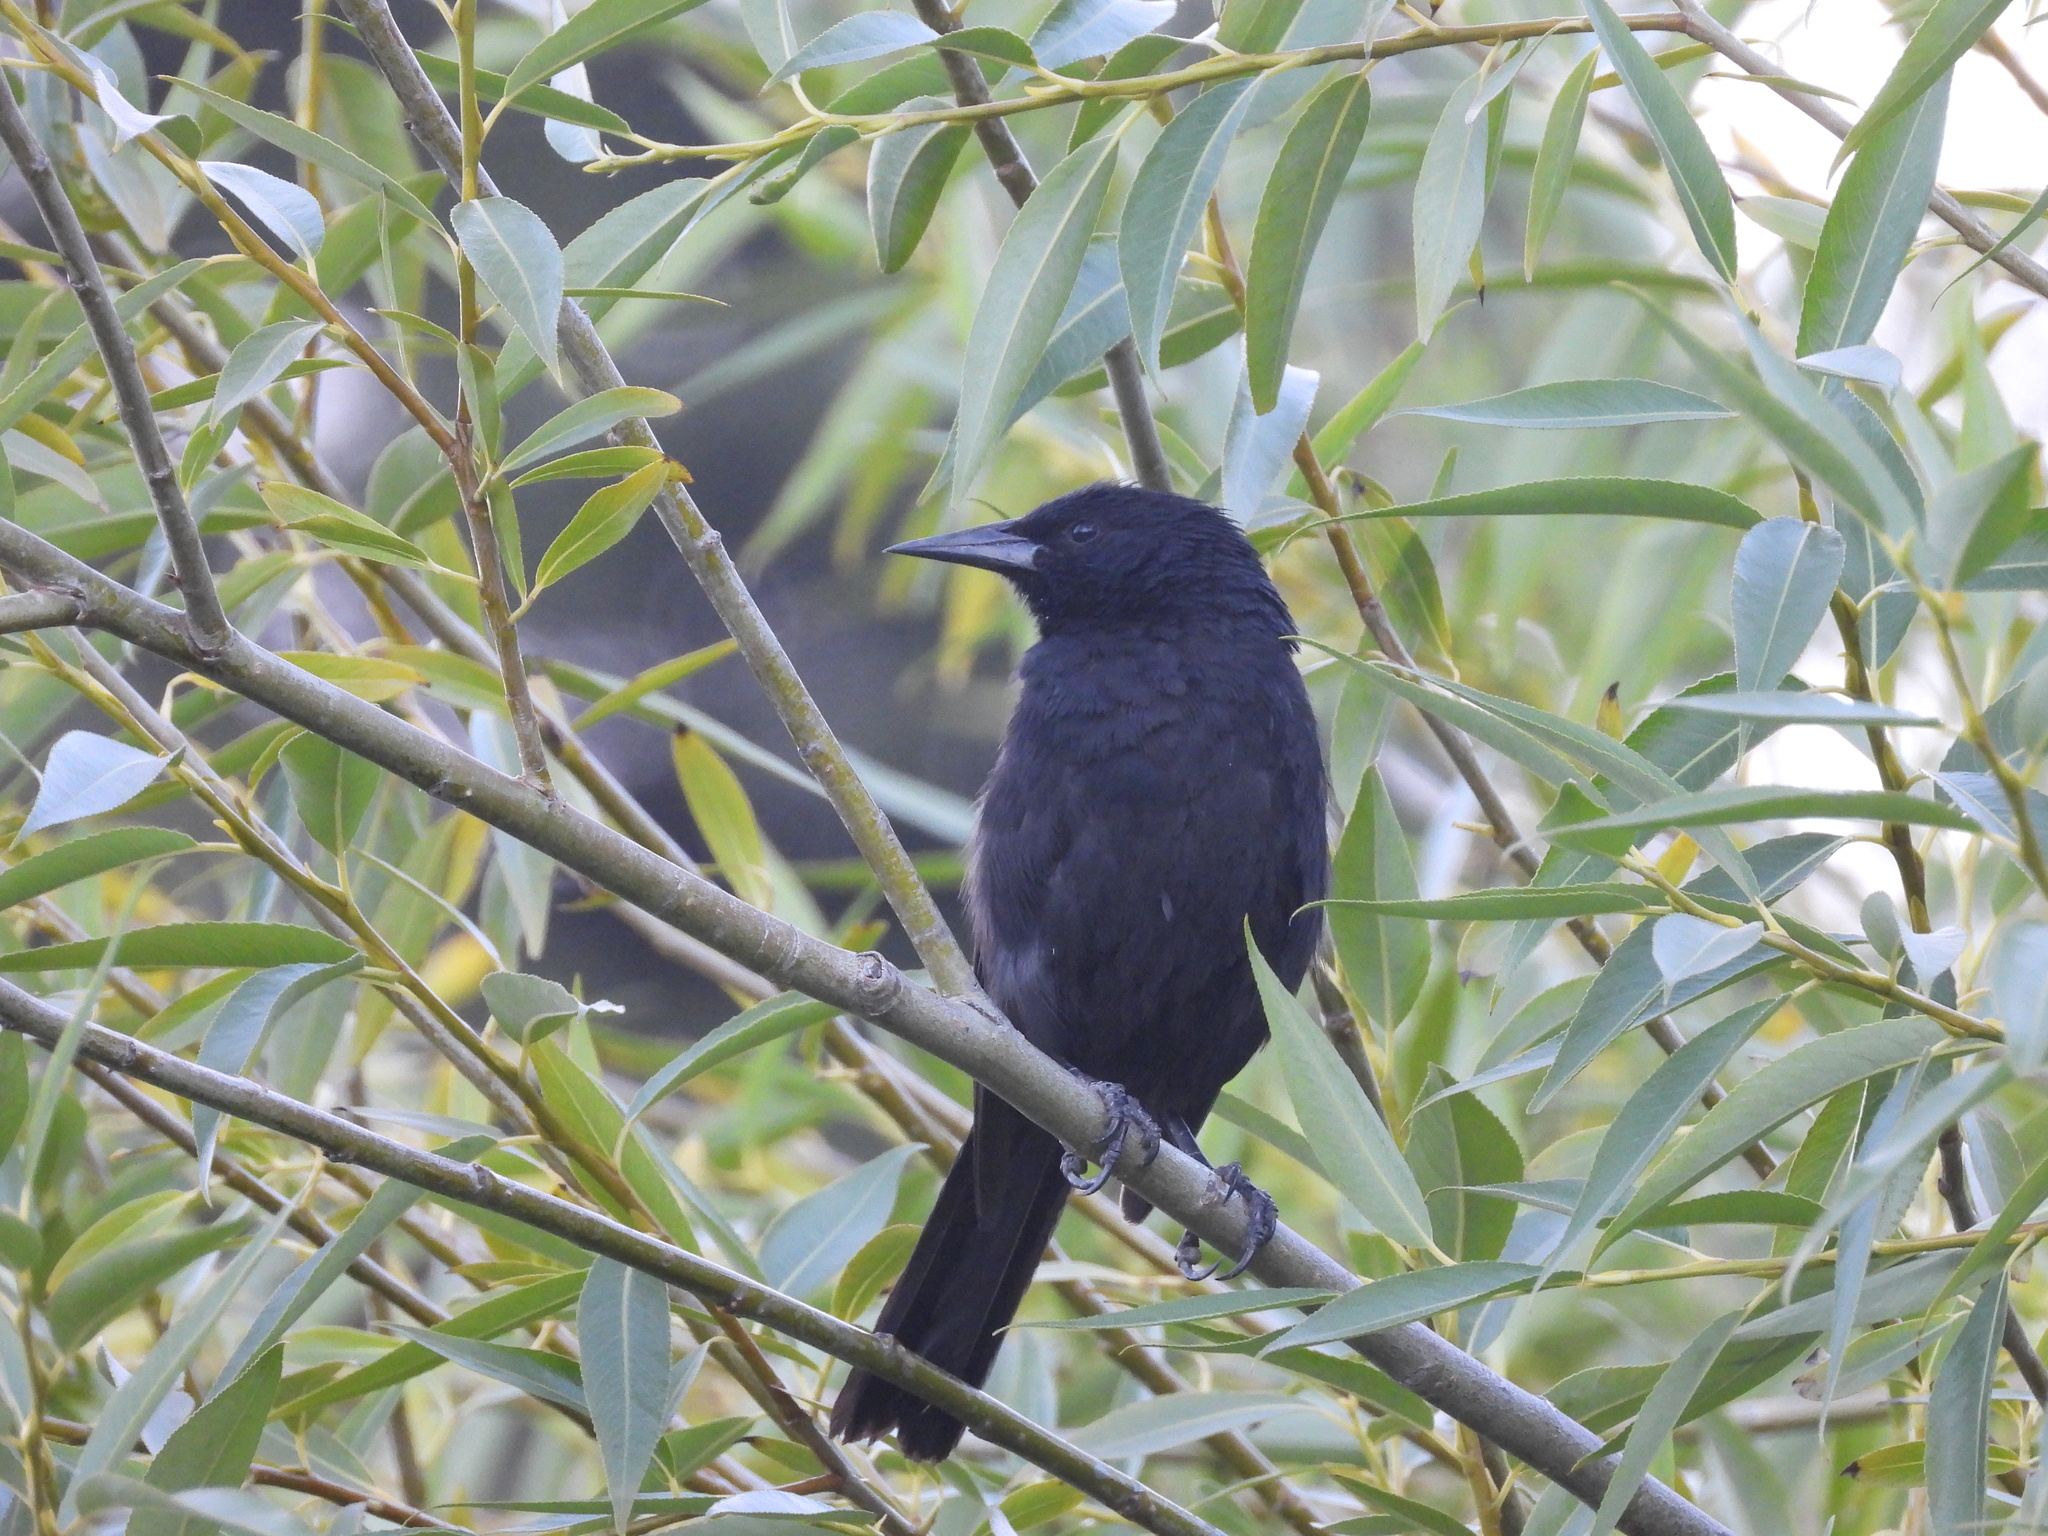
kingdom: Animalia
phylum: Chordata
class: Aves
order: Passeriformes
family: Icteridae
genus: Curaeus
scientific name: Curaeus curaeus
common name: Austral blackbird
